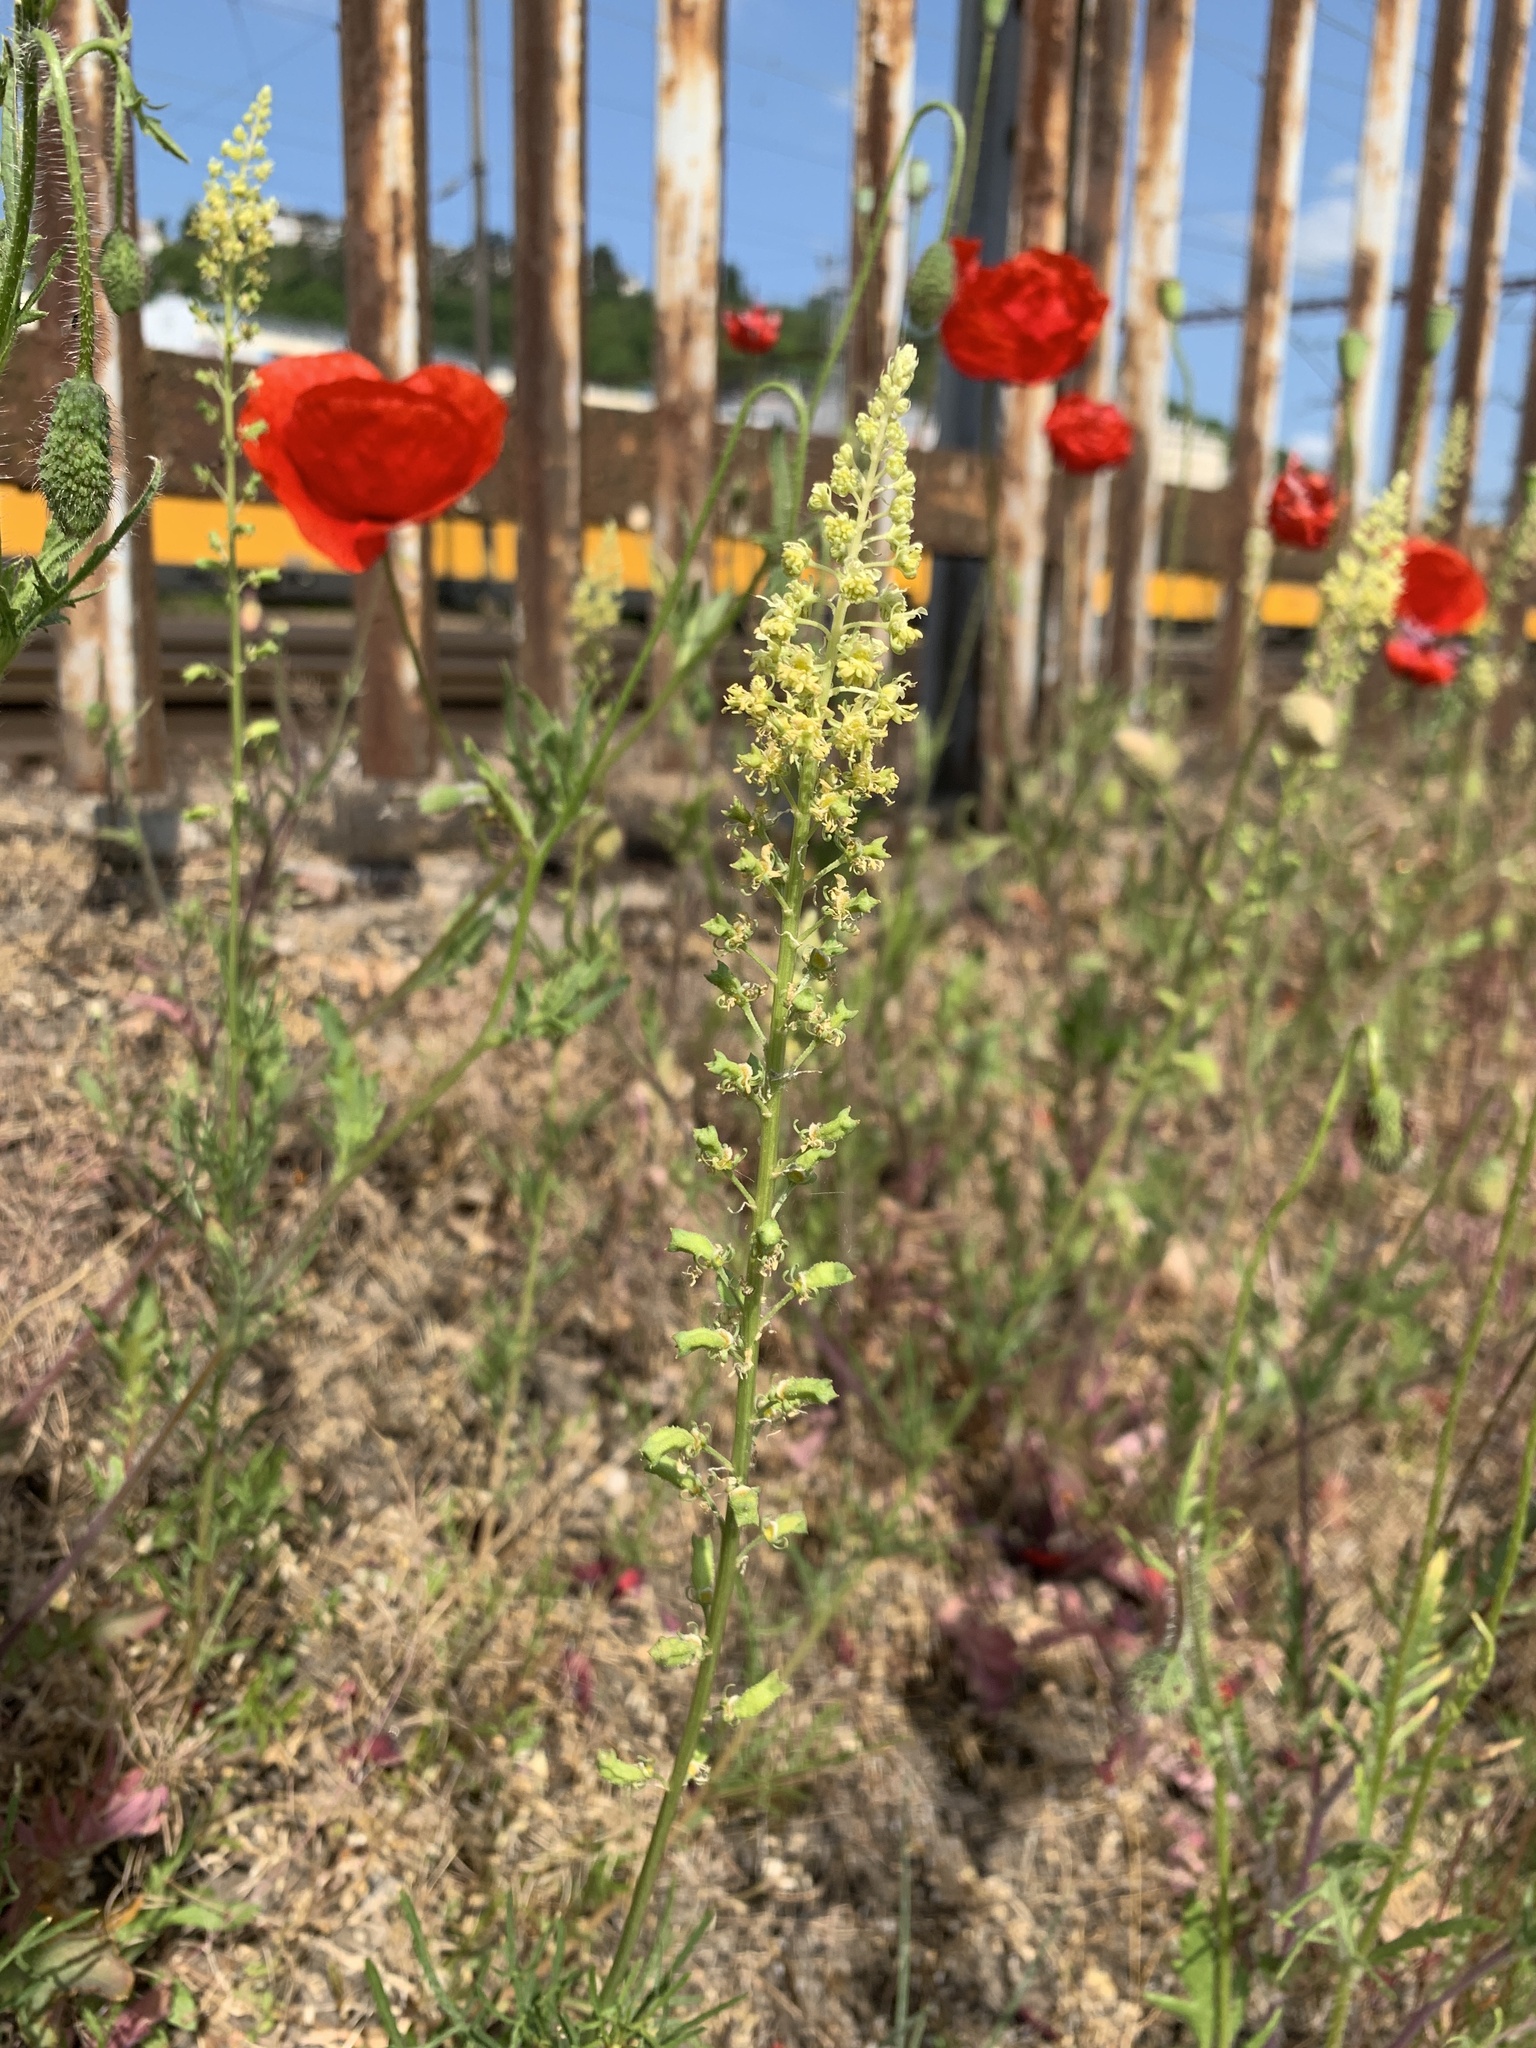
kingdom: Plantae
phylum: Tracheophyta
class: Magnoliopsida
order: Brassicales
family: Resedaceae
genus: Reseda
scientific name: Reseda lutea
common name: Wild mignonette
